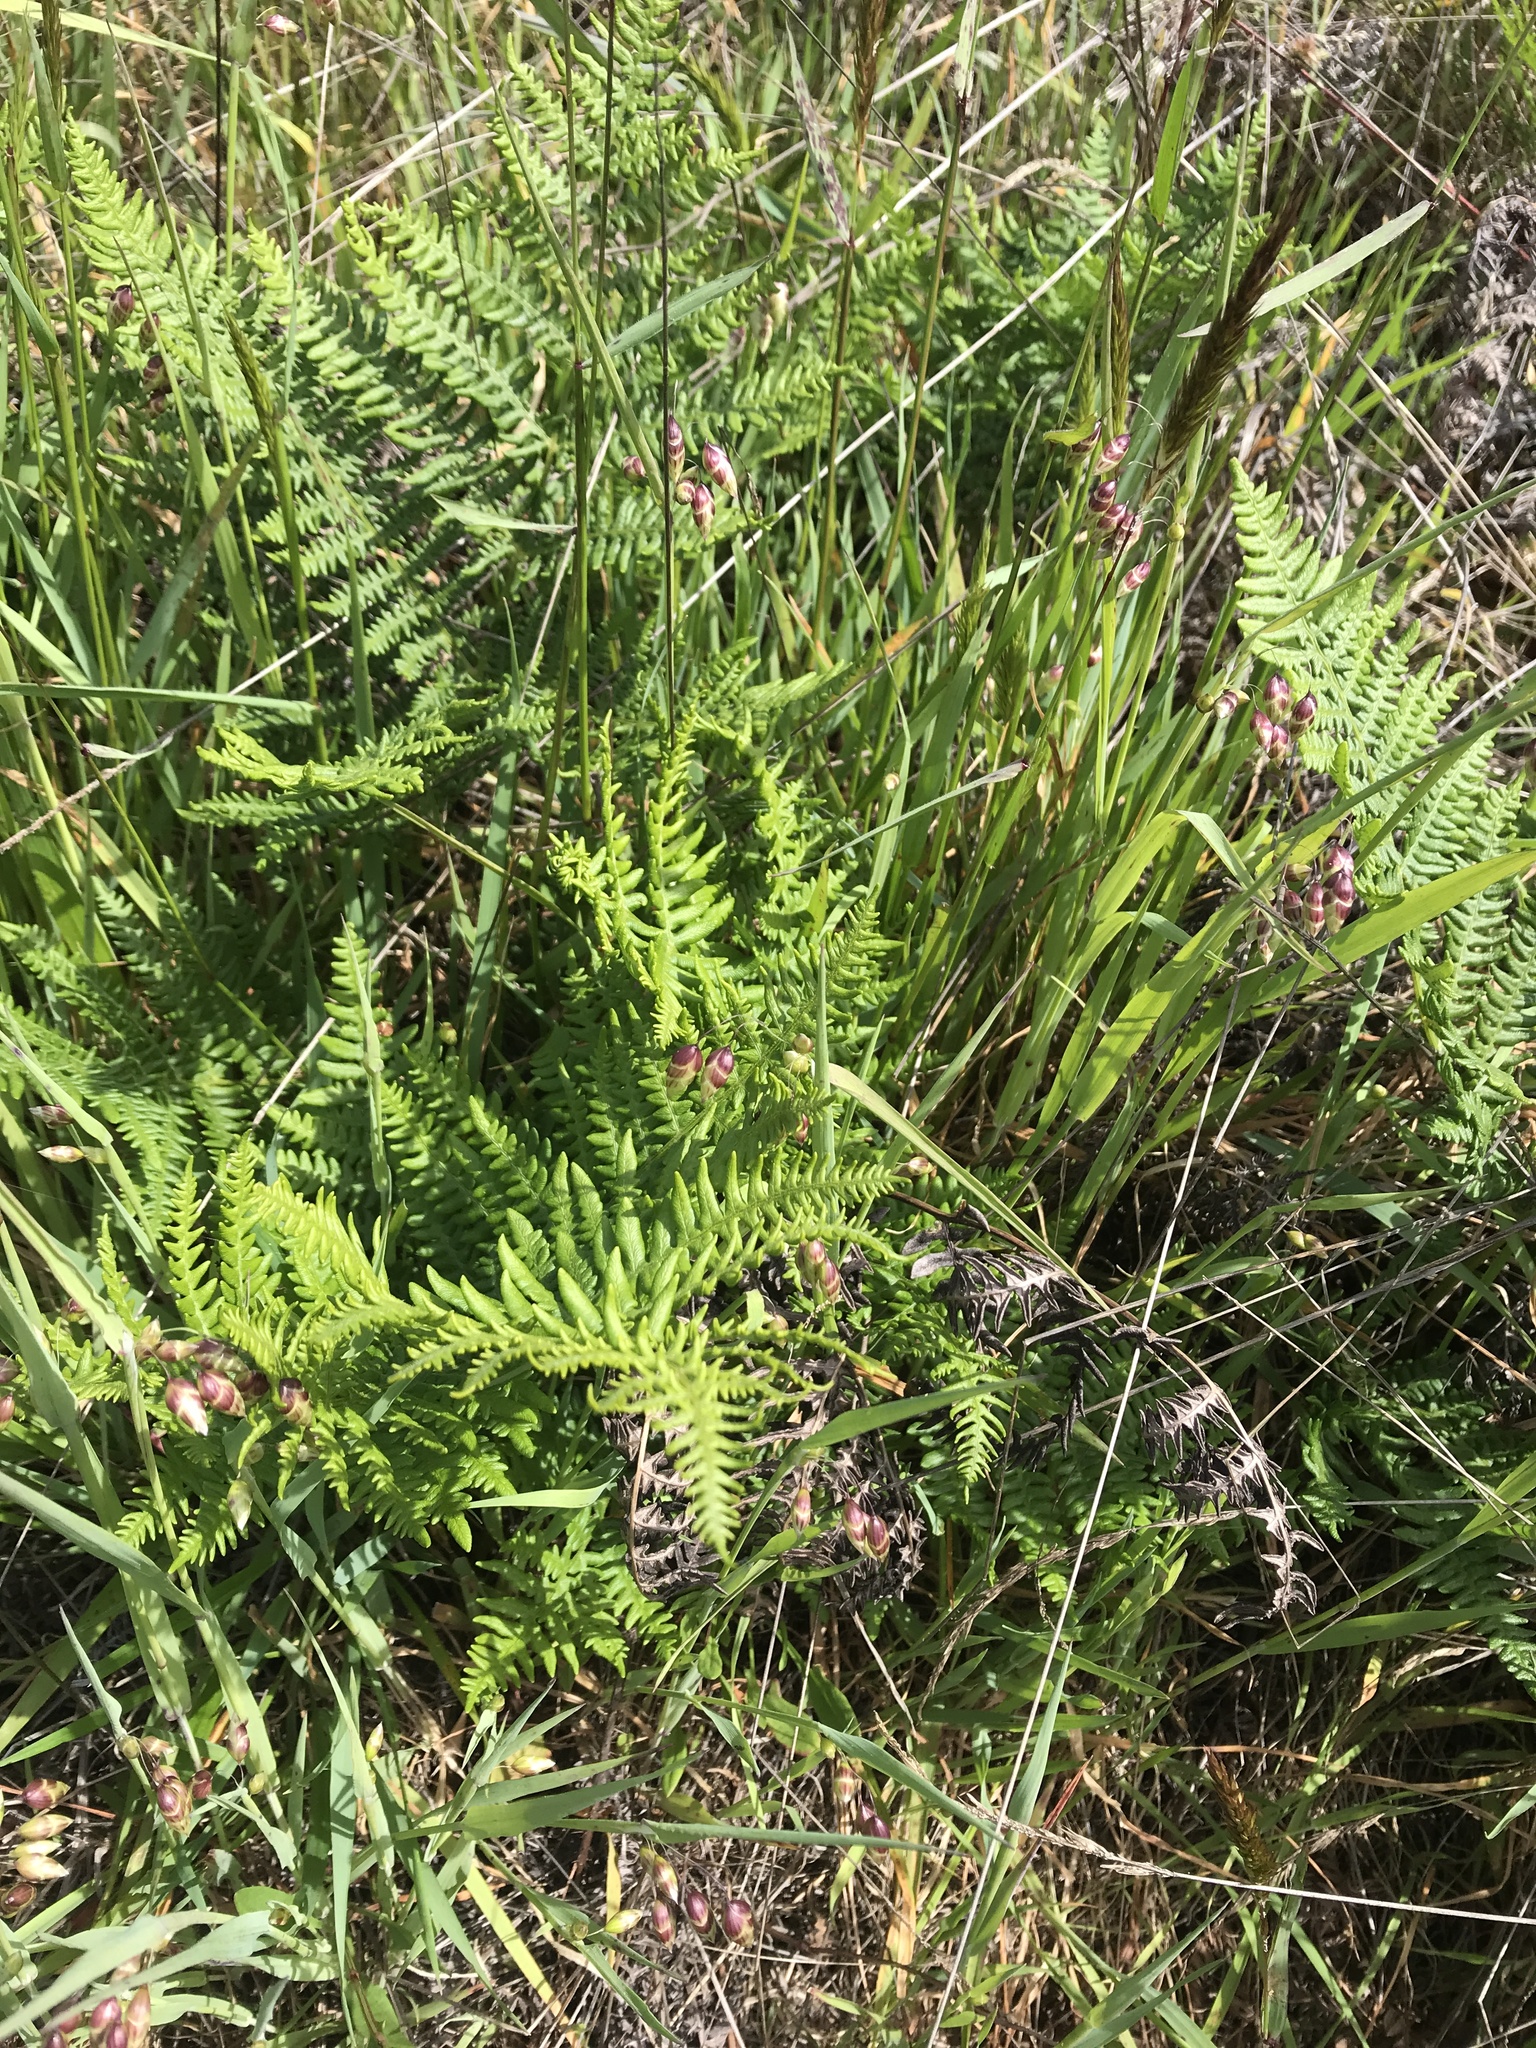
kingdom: Plantae
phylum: Tracheophyta
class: Polypodiopsida
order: Polypodiales
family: Dennstaedtiaceae
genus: Pteridium
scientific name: Pteridium aquilinum
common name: Bracken
